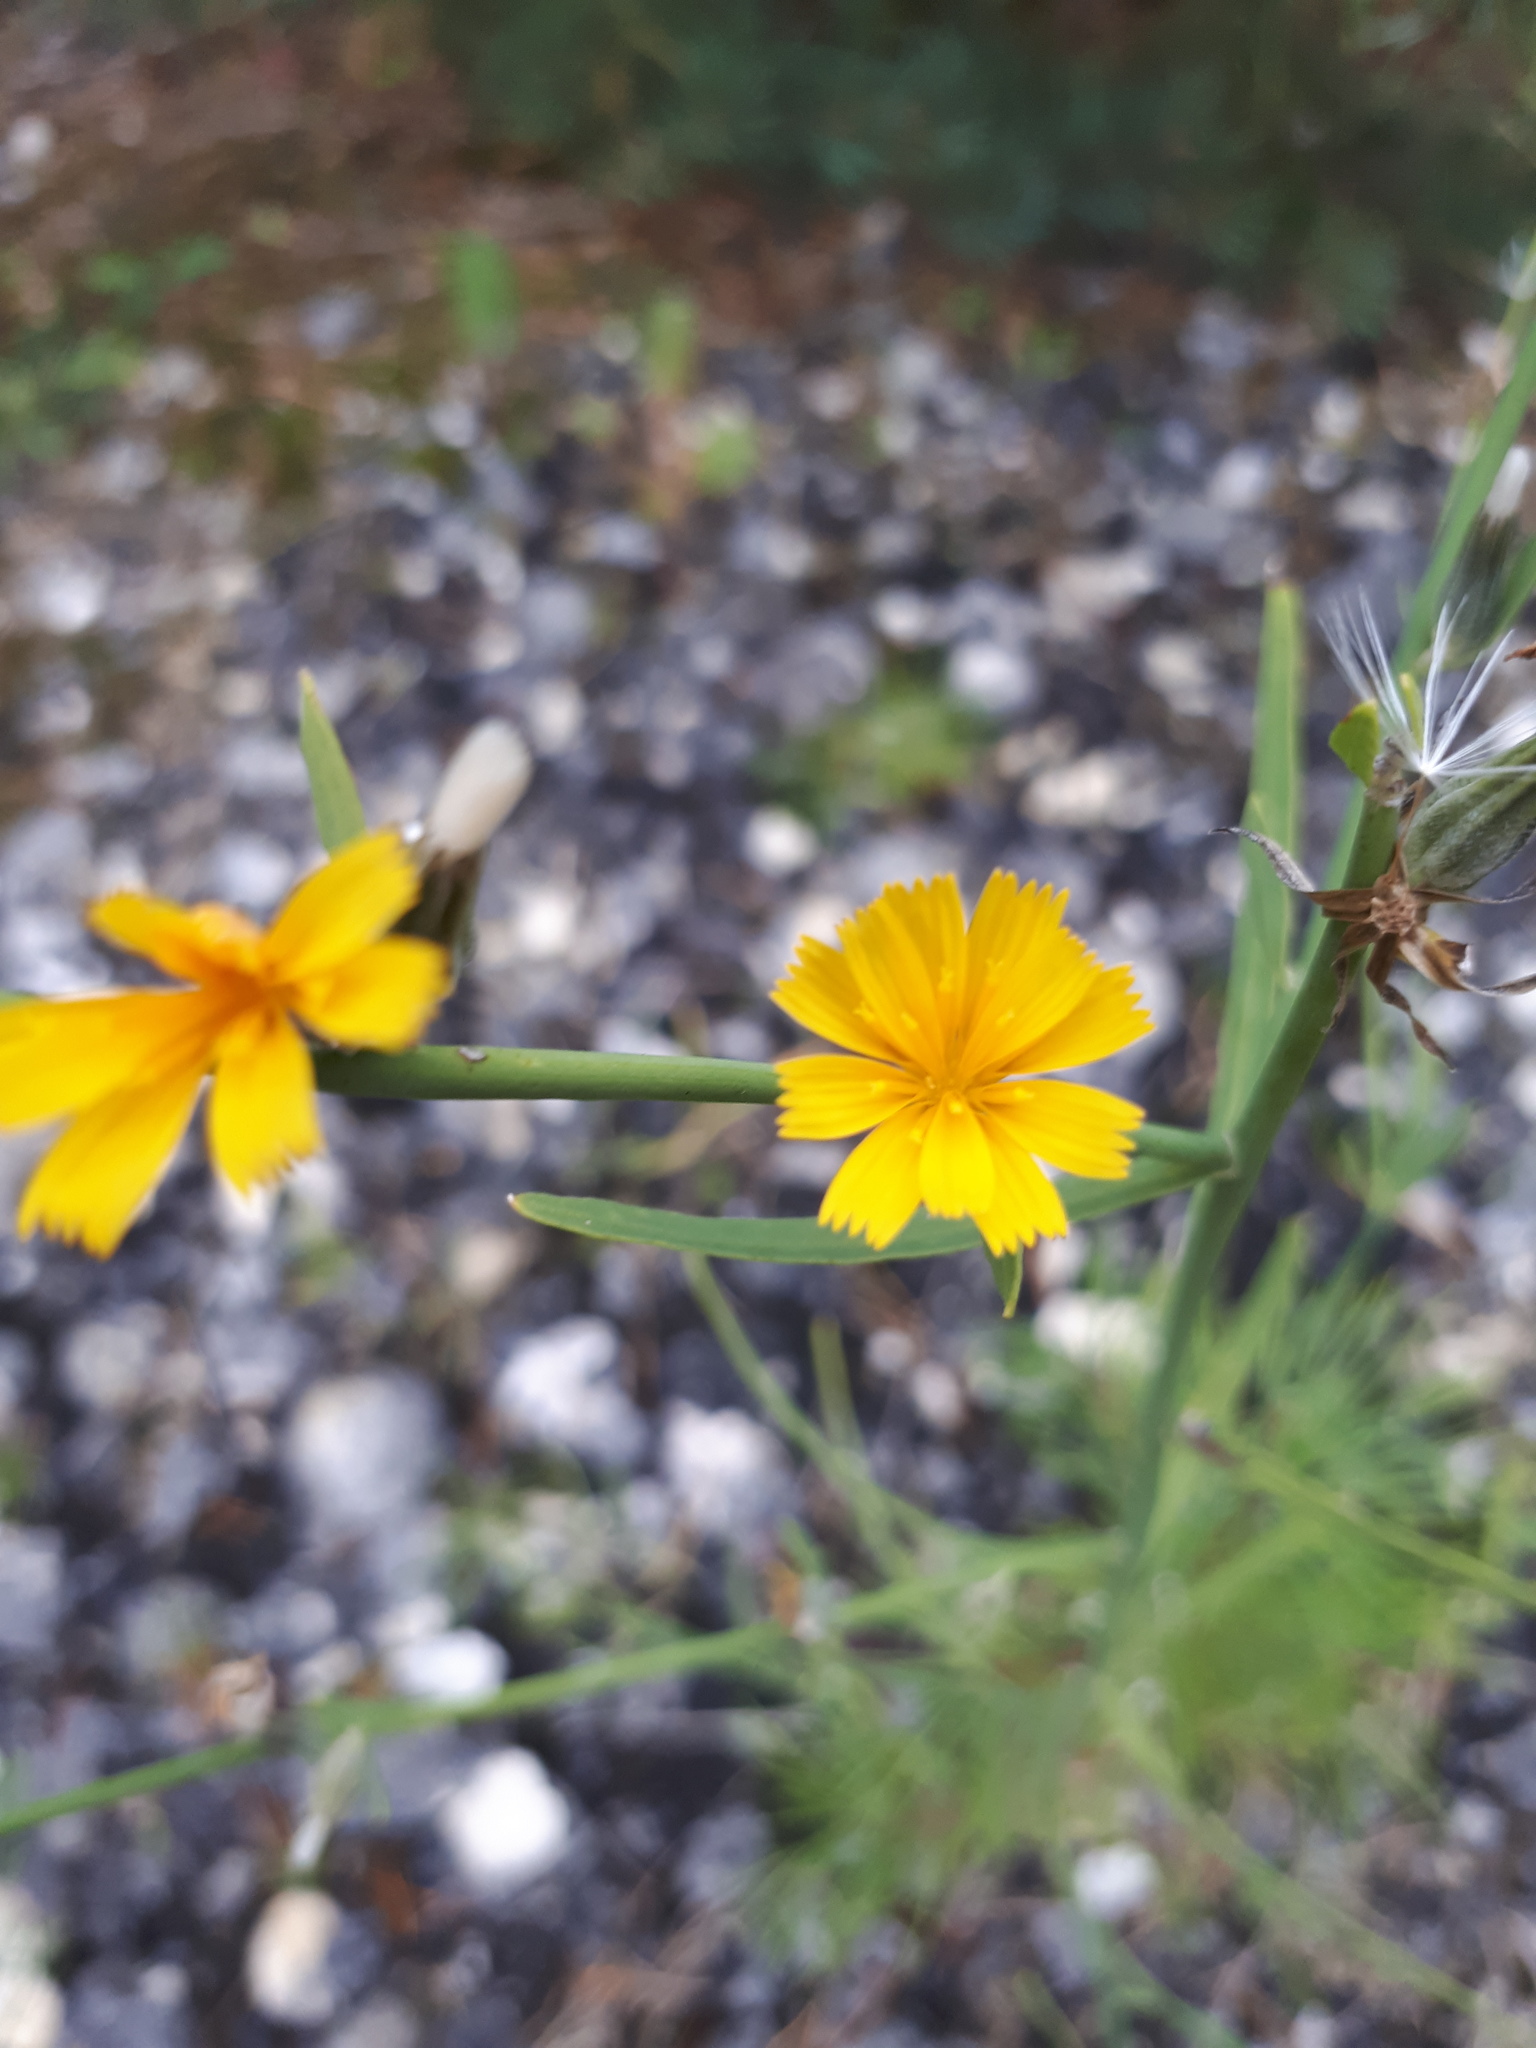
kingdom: Plantae
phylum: Tracheophyta
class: Magnoliopsida
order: Asterales
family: Asteraceae
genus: Chondrilla
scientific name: Chondrilla juncea
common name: Skeleton weed
